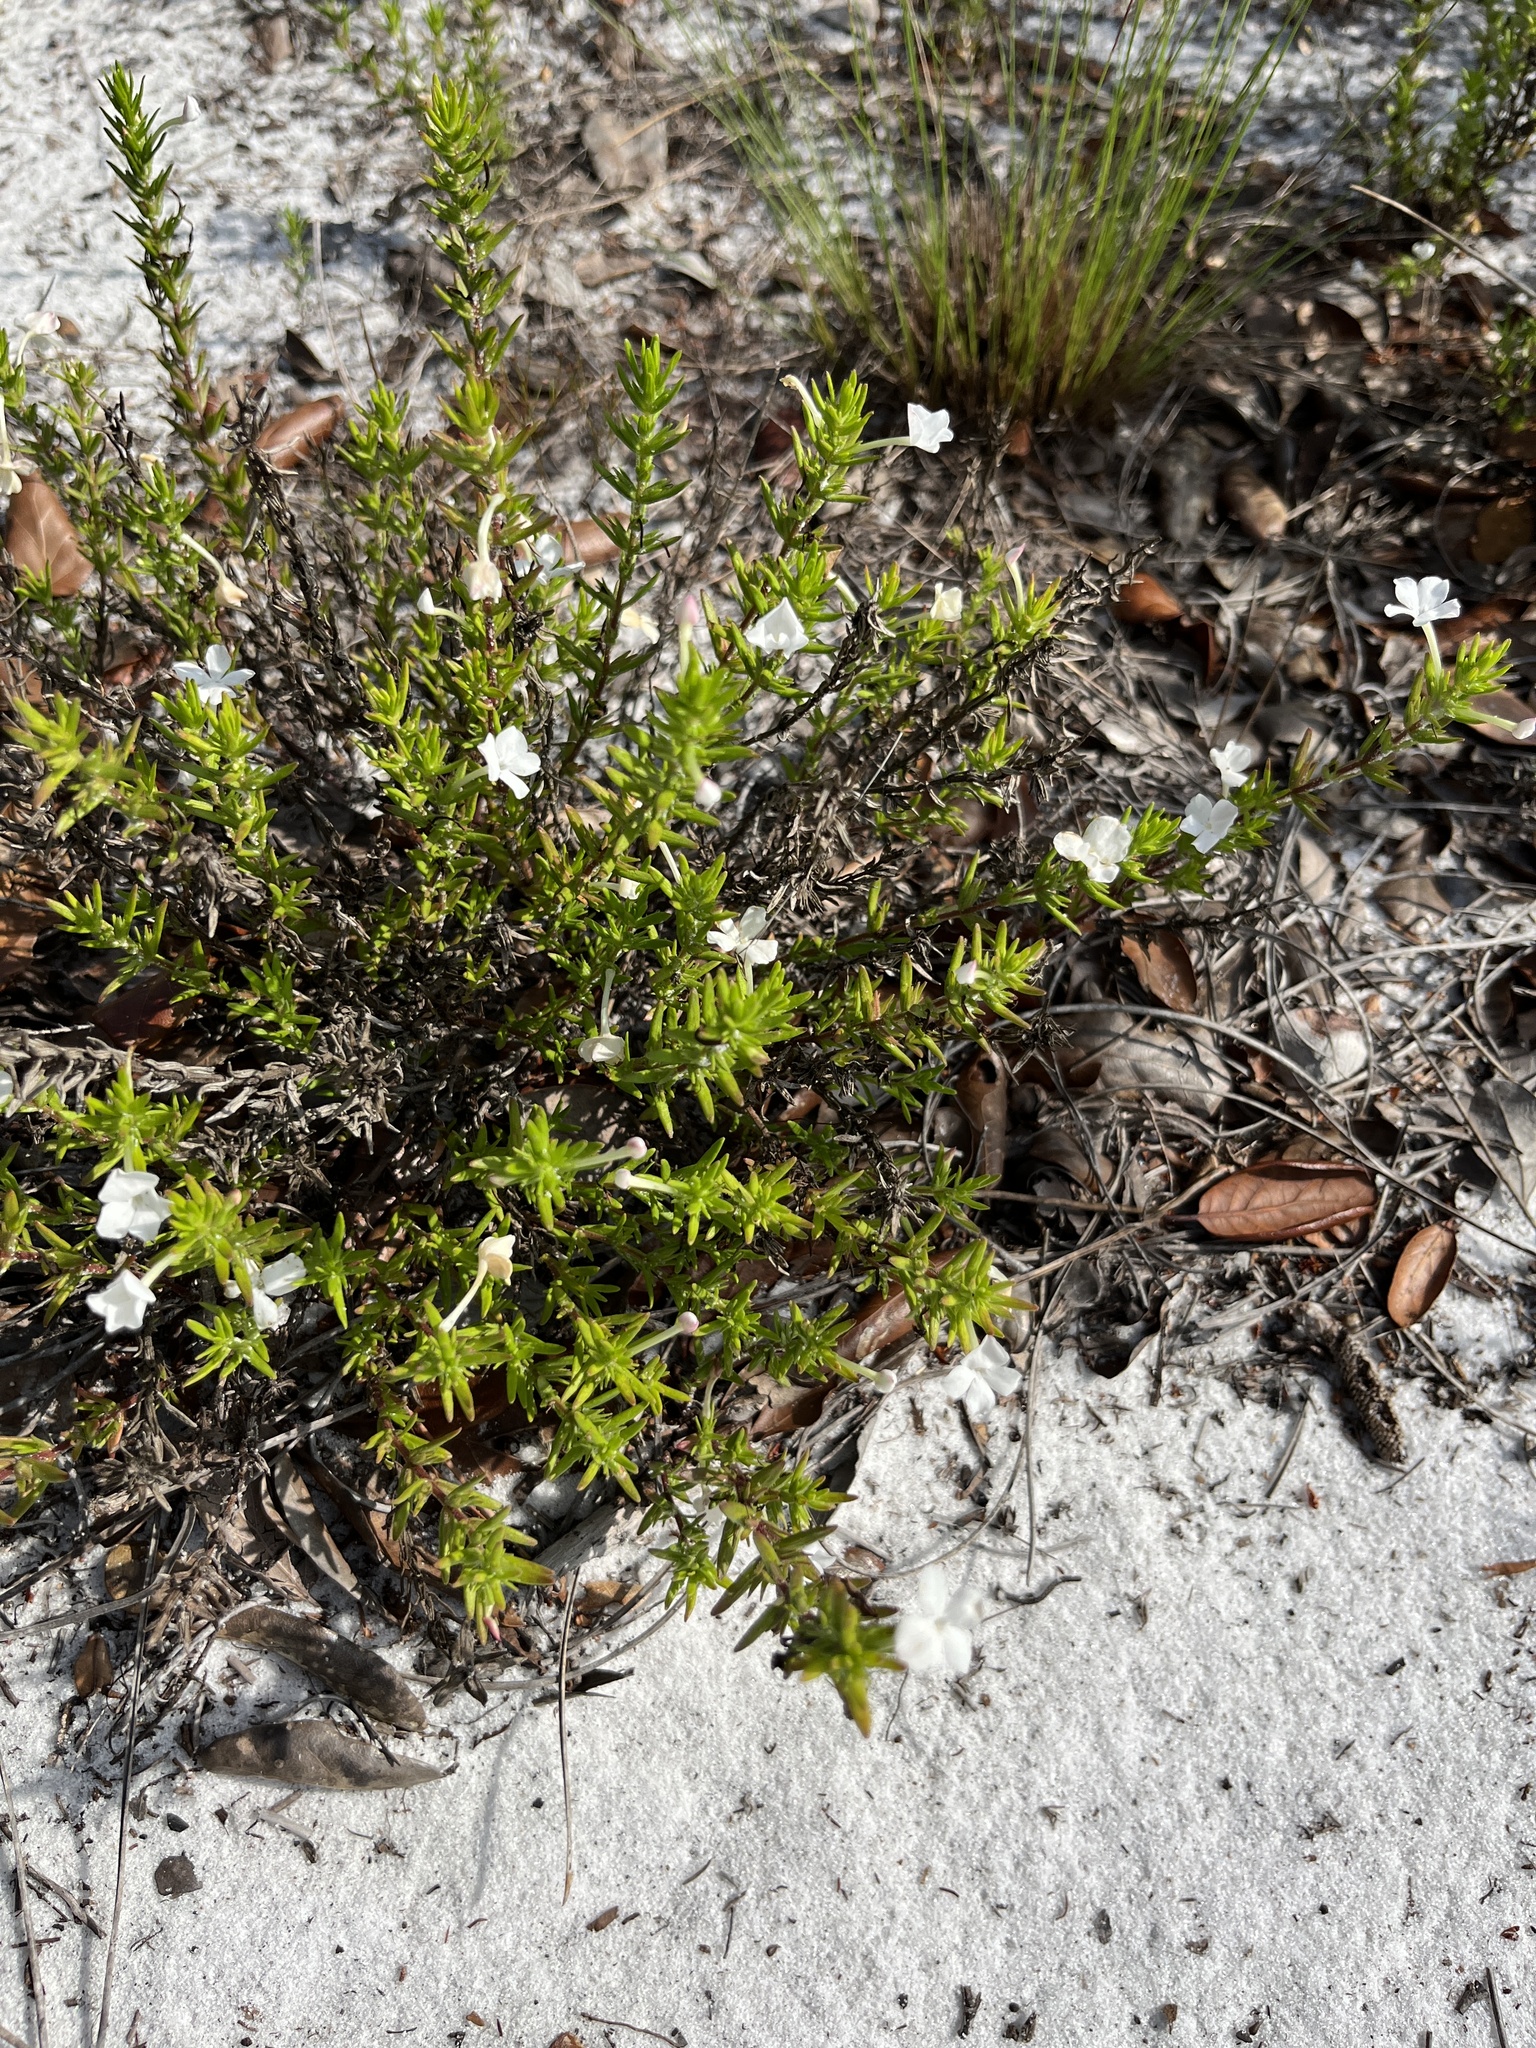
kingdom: Plantae
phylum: Tracheophyta
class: Magnoliopsida
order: Lamiales
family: Plantaginaceae
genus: Gratiola
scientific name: Gratiola hispida
